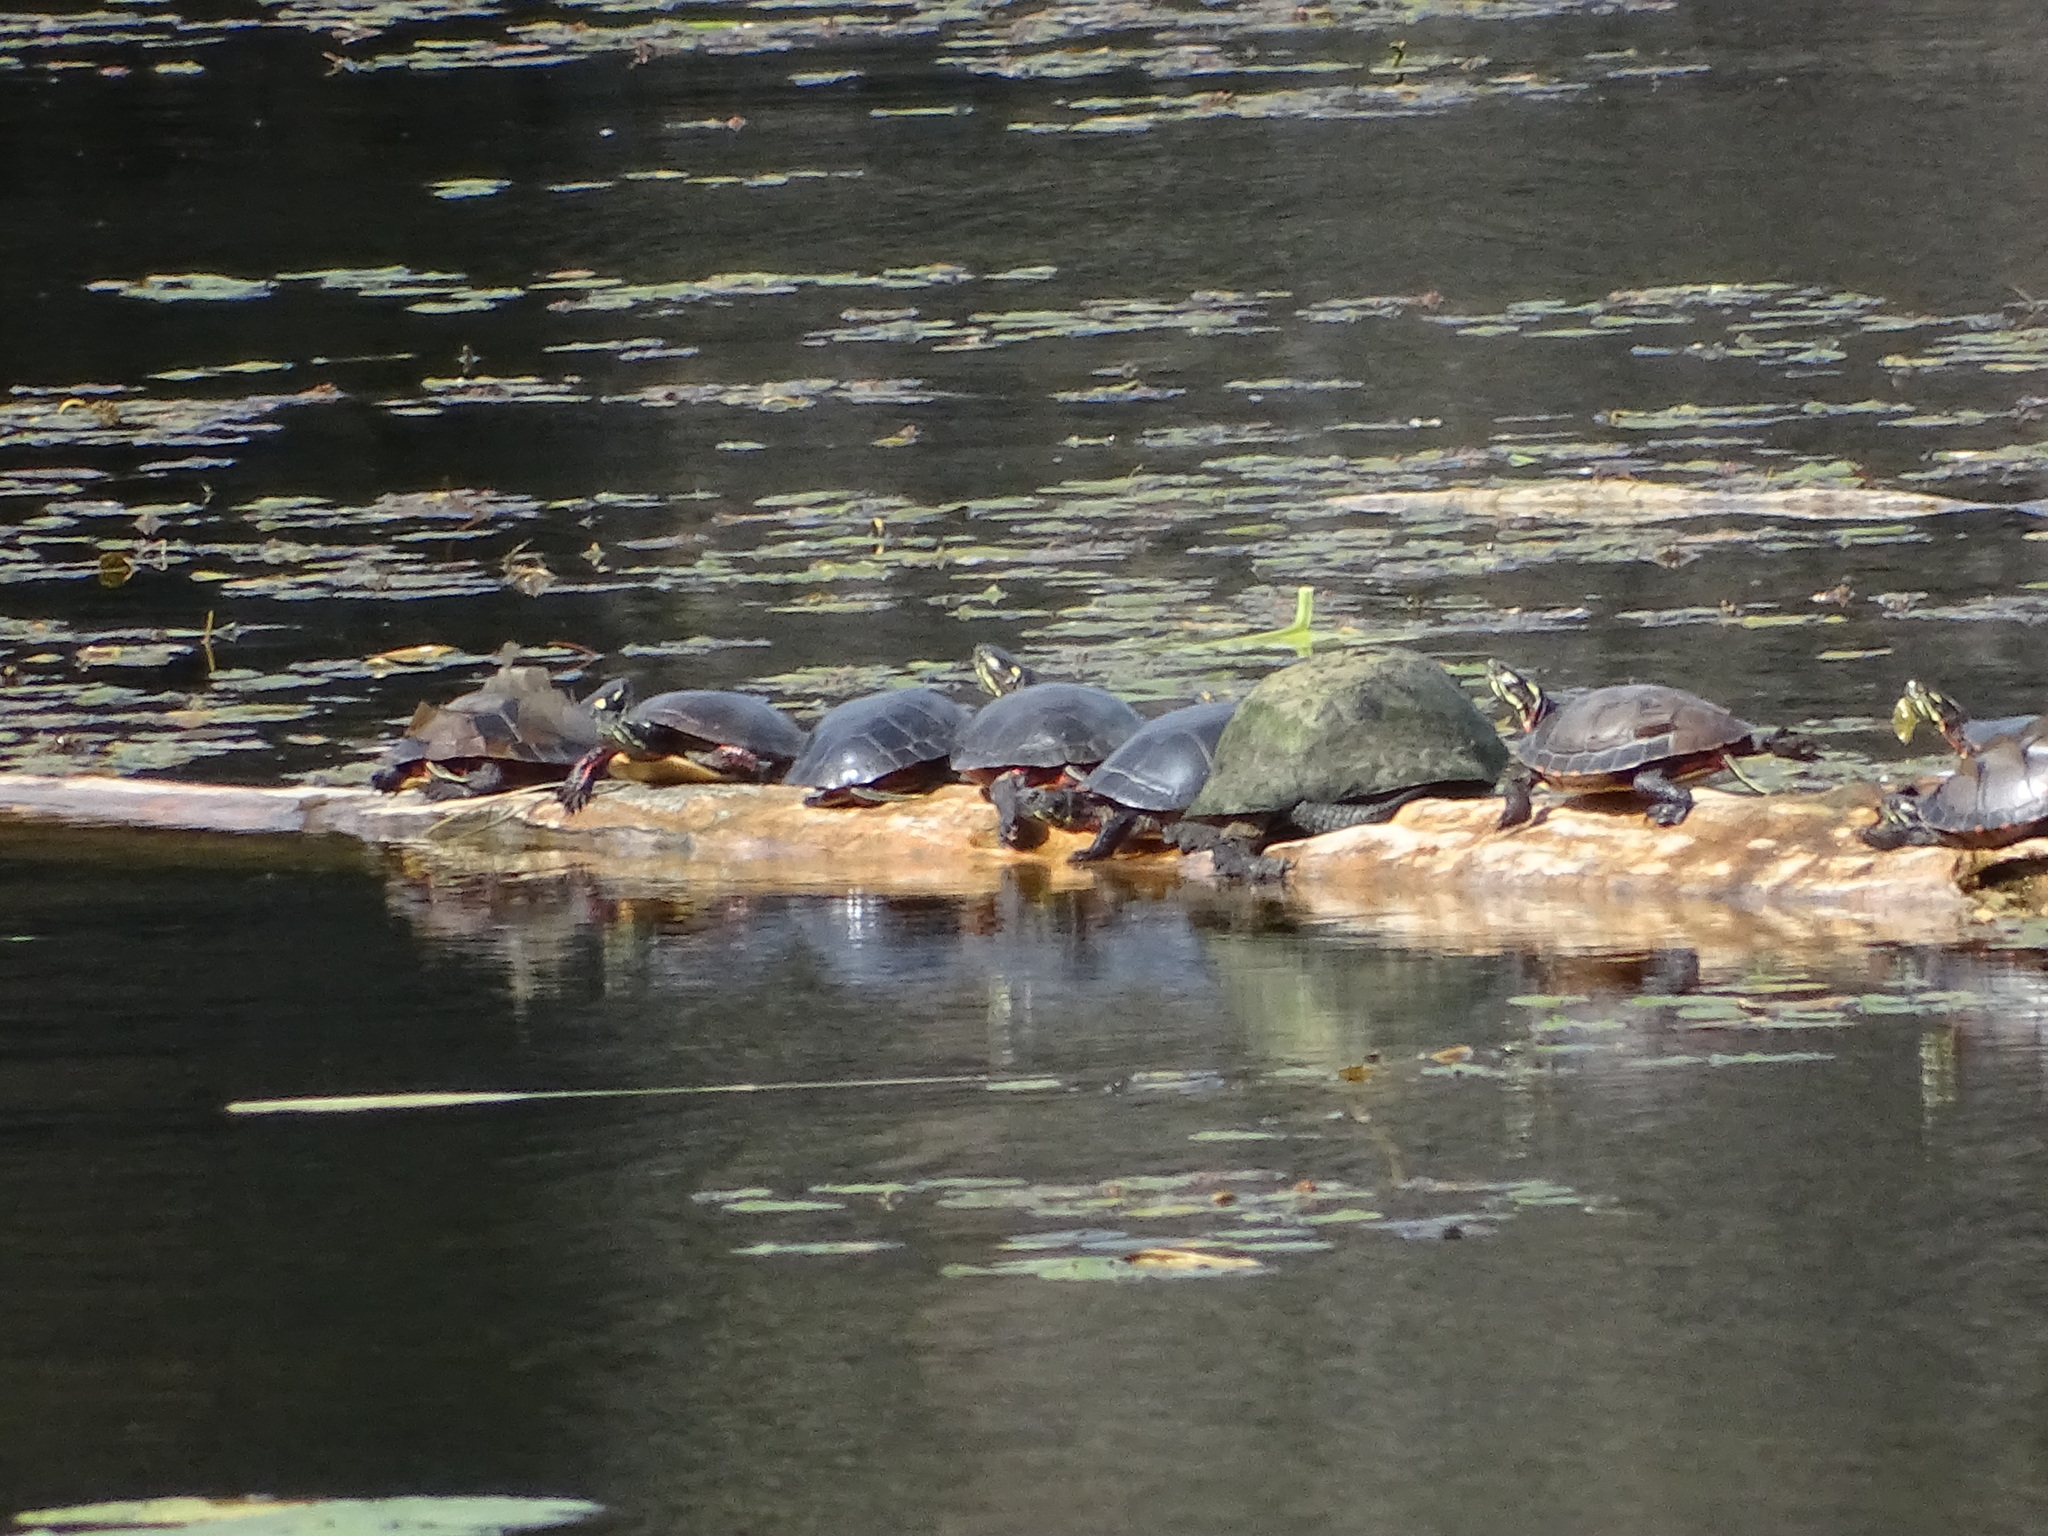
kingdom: Animalia
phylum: Chordata
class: Testudines
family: Emydidae
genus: Emys
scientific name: Emys blandingii
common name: Blanding's turtle
